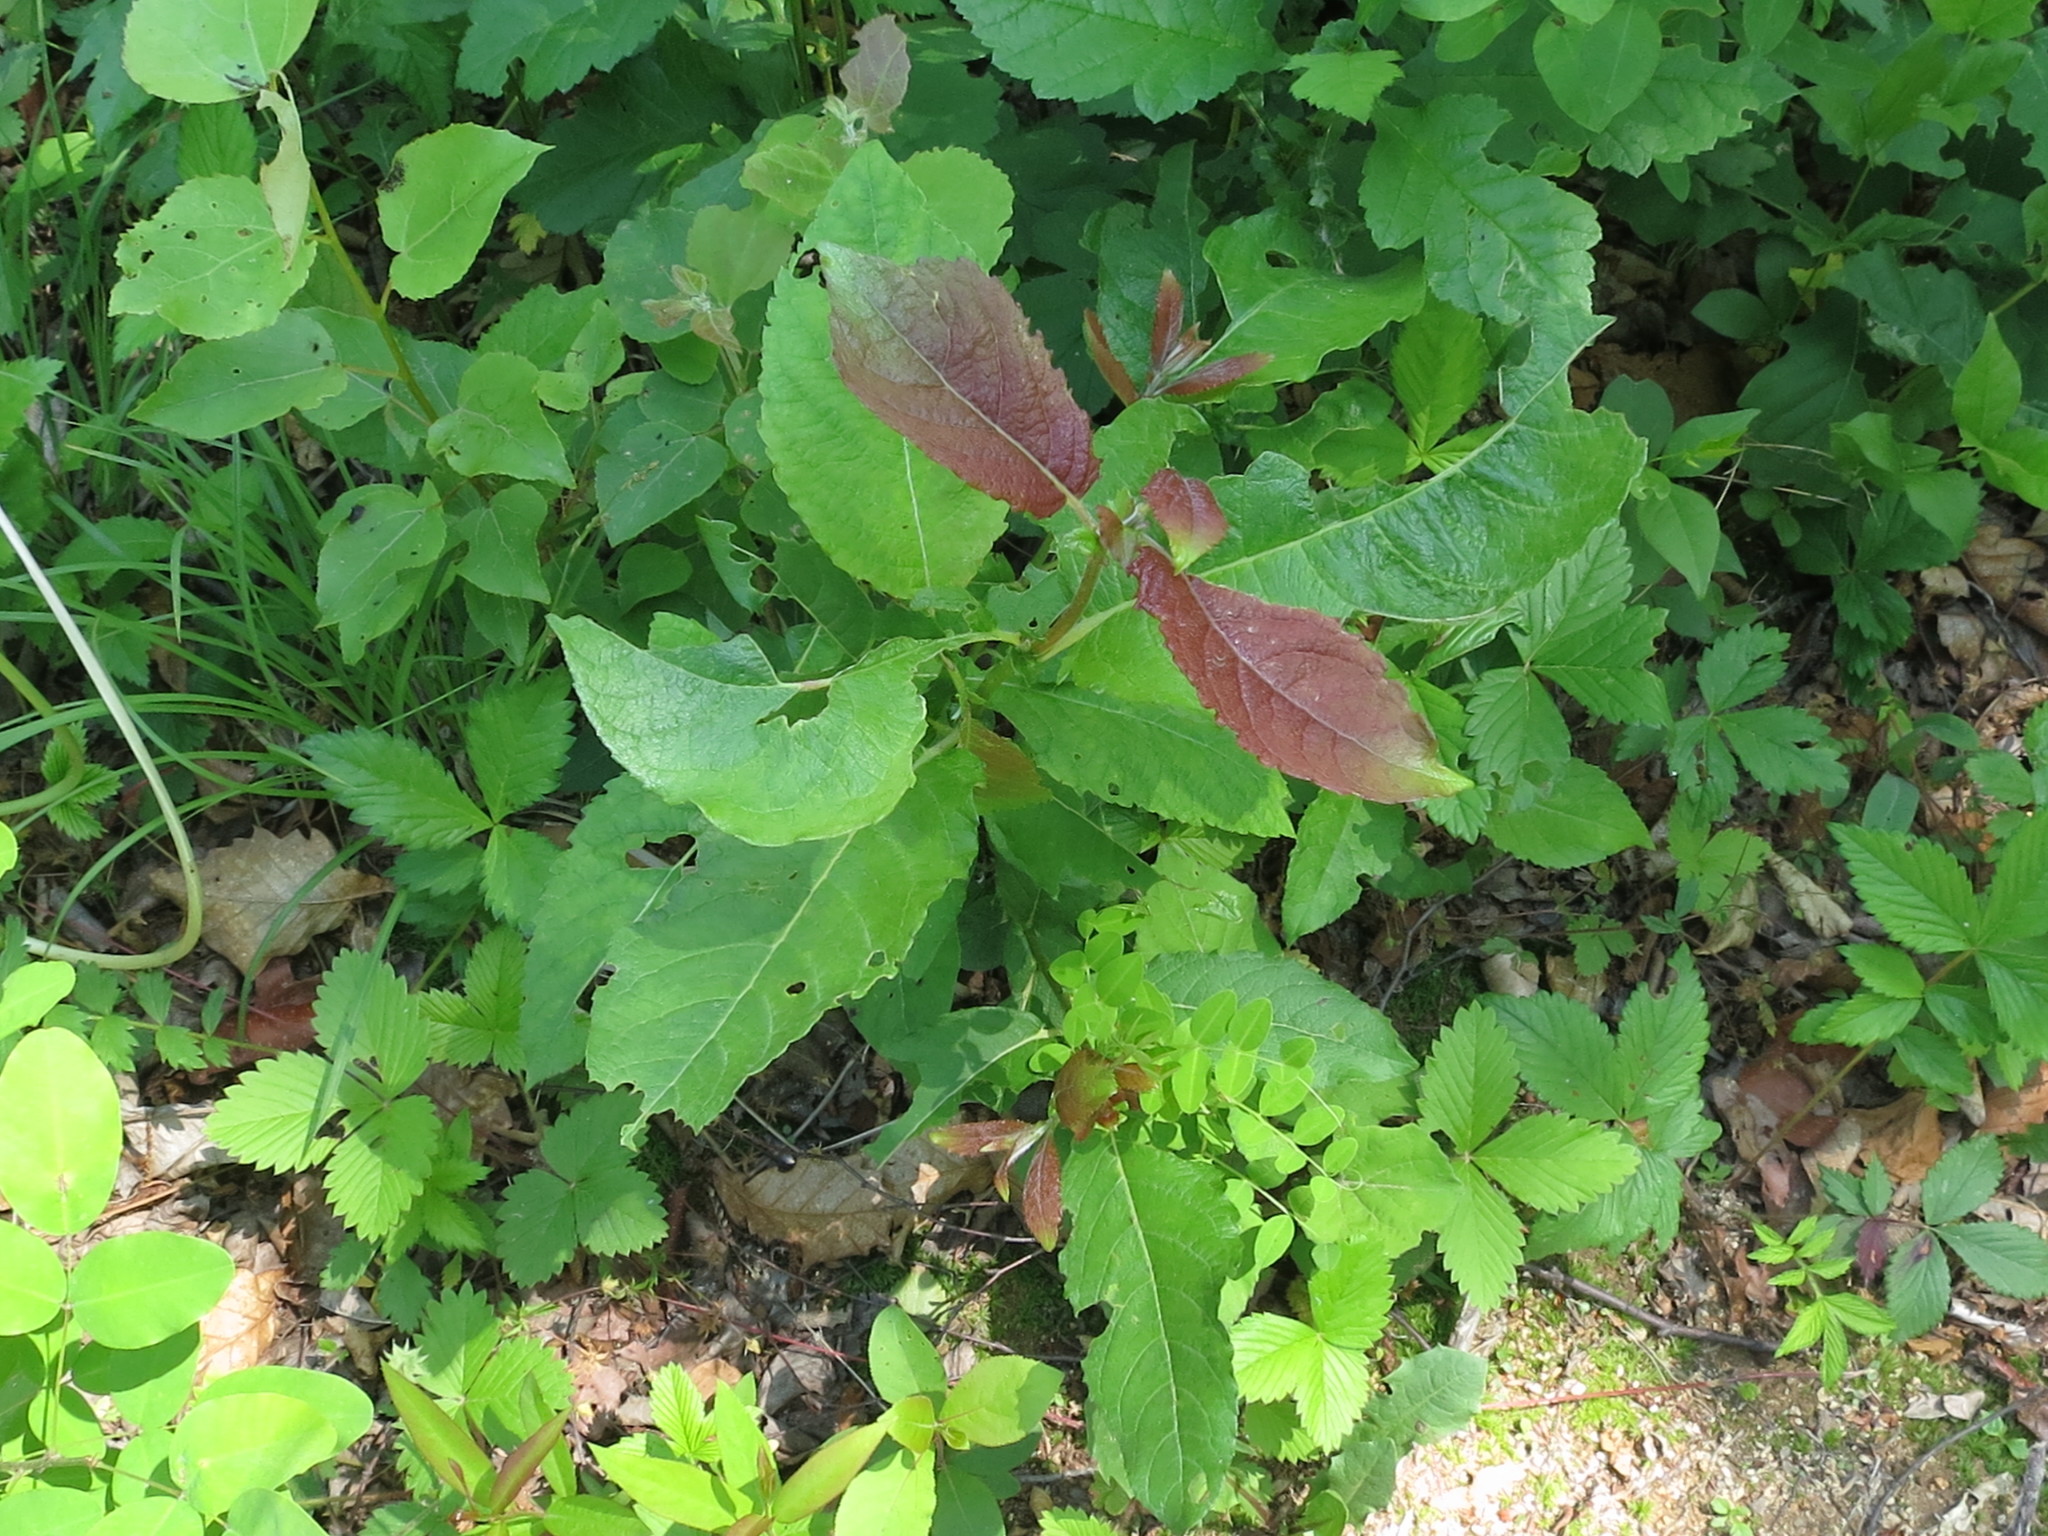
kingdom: Plantae
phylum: Tracheophyta
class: Magnoliopsida
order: Malpighiales
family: Salicaceae
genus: Salix
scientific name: Salix caprea
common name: Goat willow
